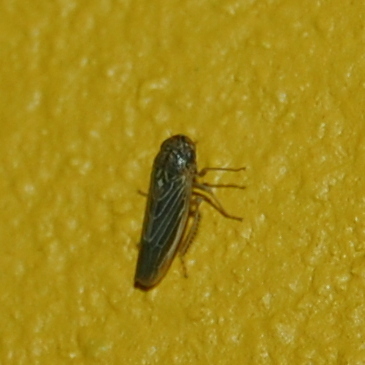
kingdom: Animalia
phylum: Arthropoda
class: Insecta
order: Hemiptera
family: Cicadellidae
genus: Ciminius
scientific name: Ciminius platensis
